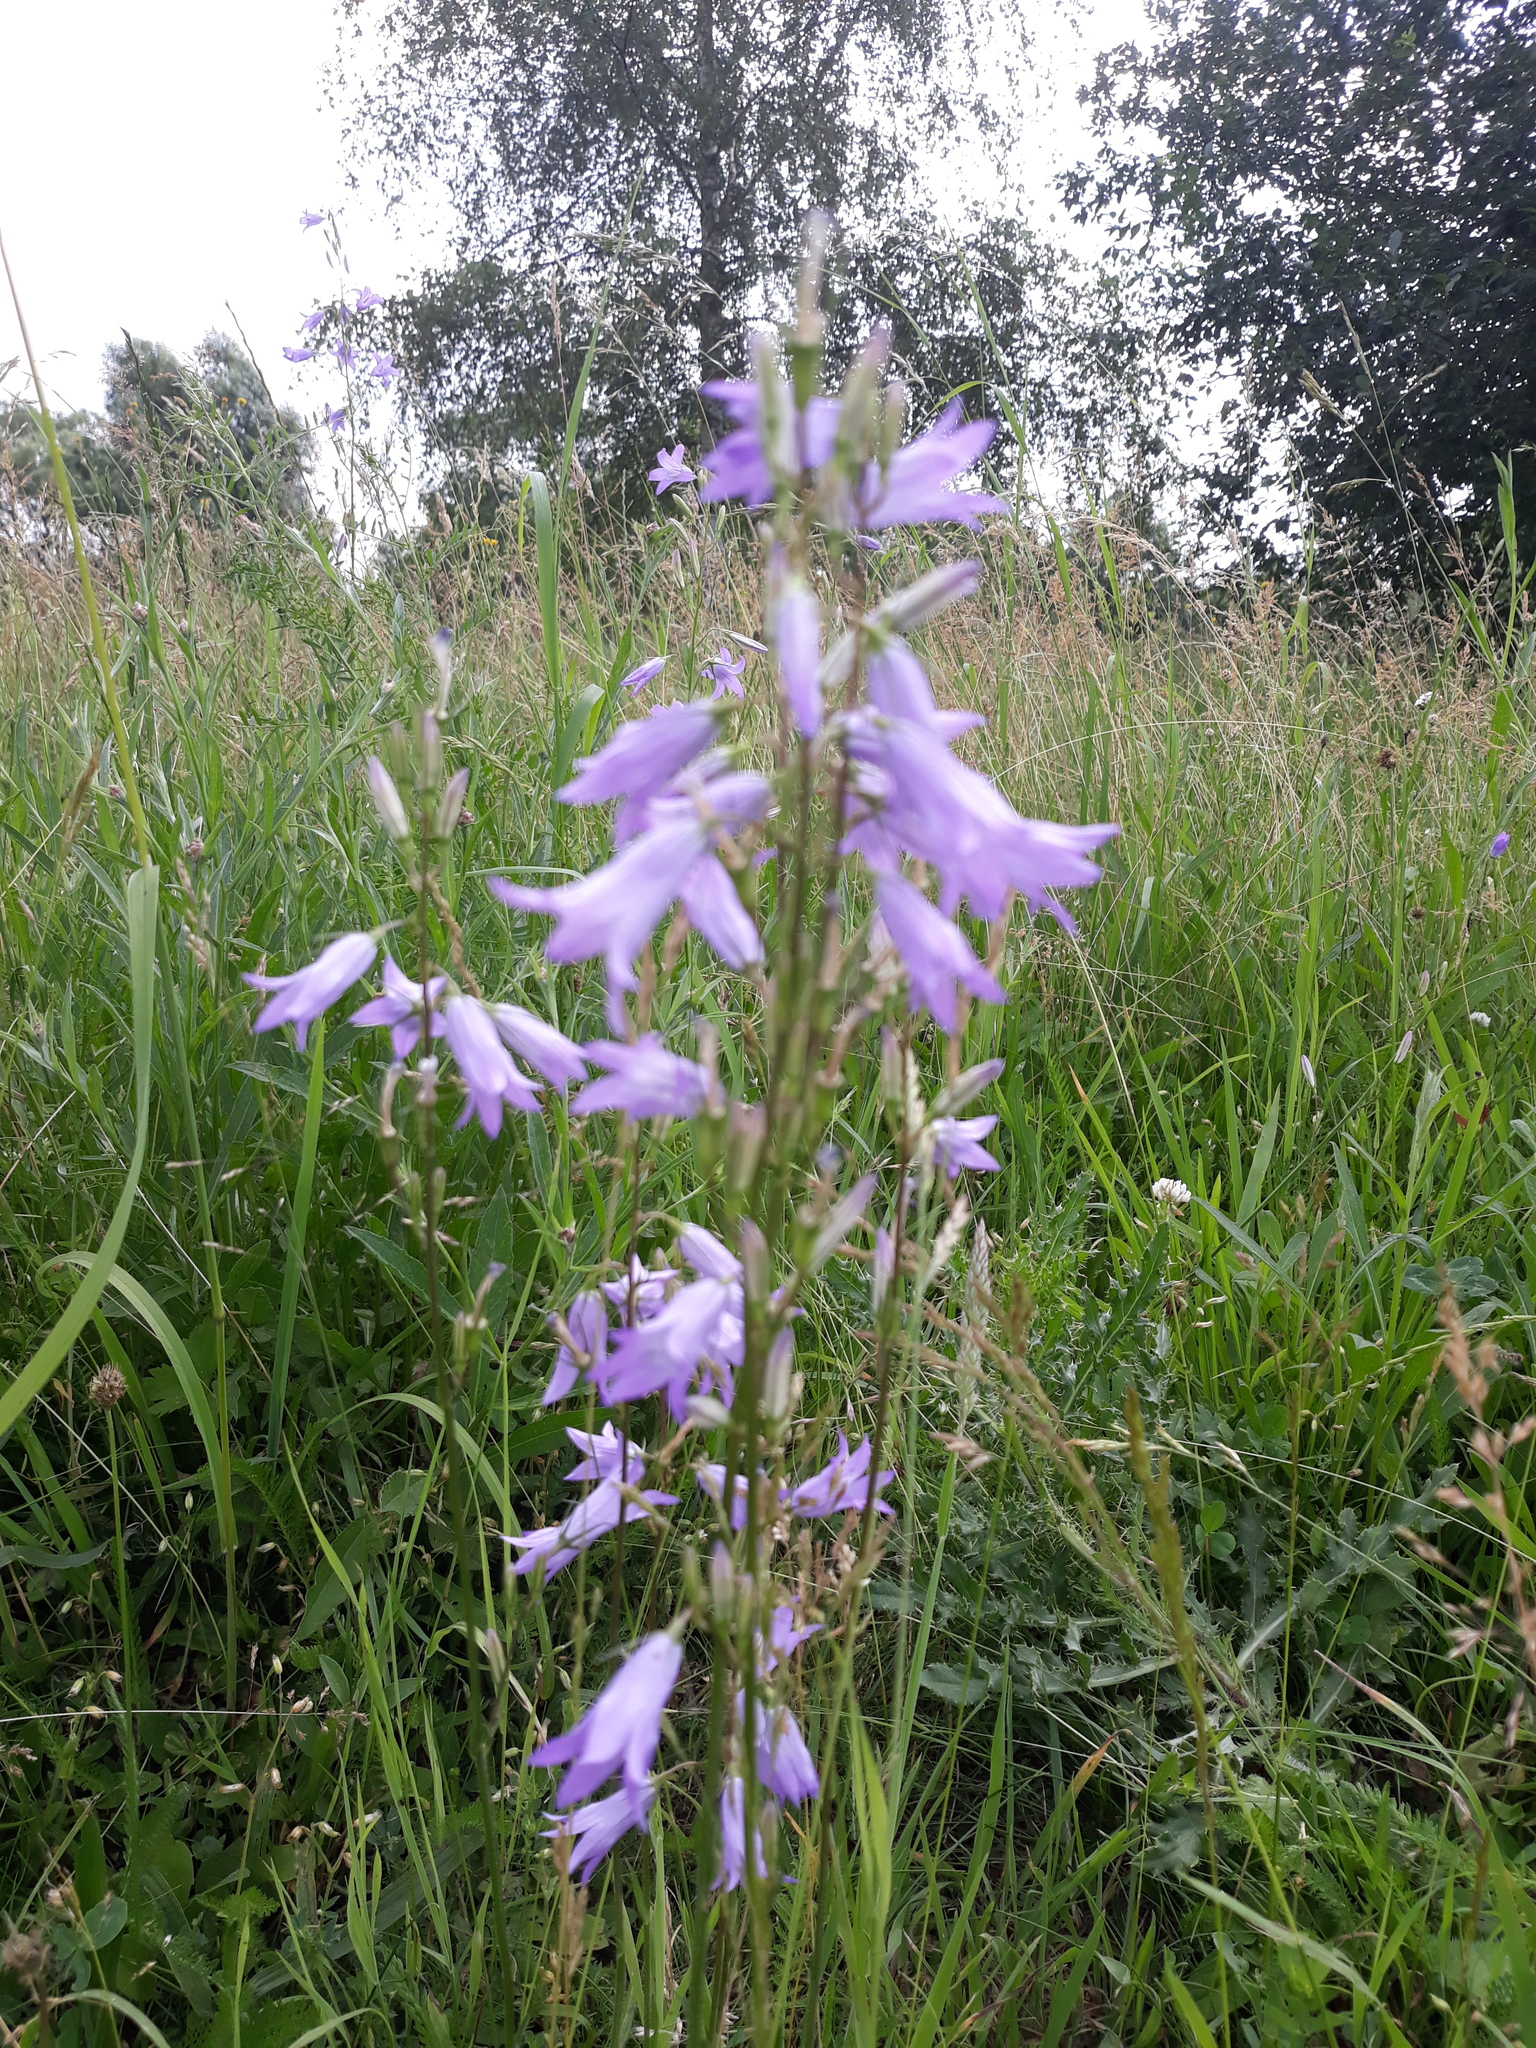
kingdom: Plantae
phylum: Tracheophyta
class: Magnoliopsida
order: Asterales
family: Campanulaceae
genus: Campanula
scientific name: Campanula rapunculus
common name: Rampion bellflower
